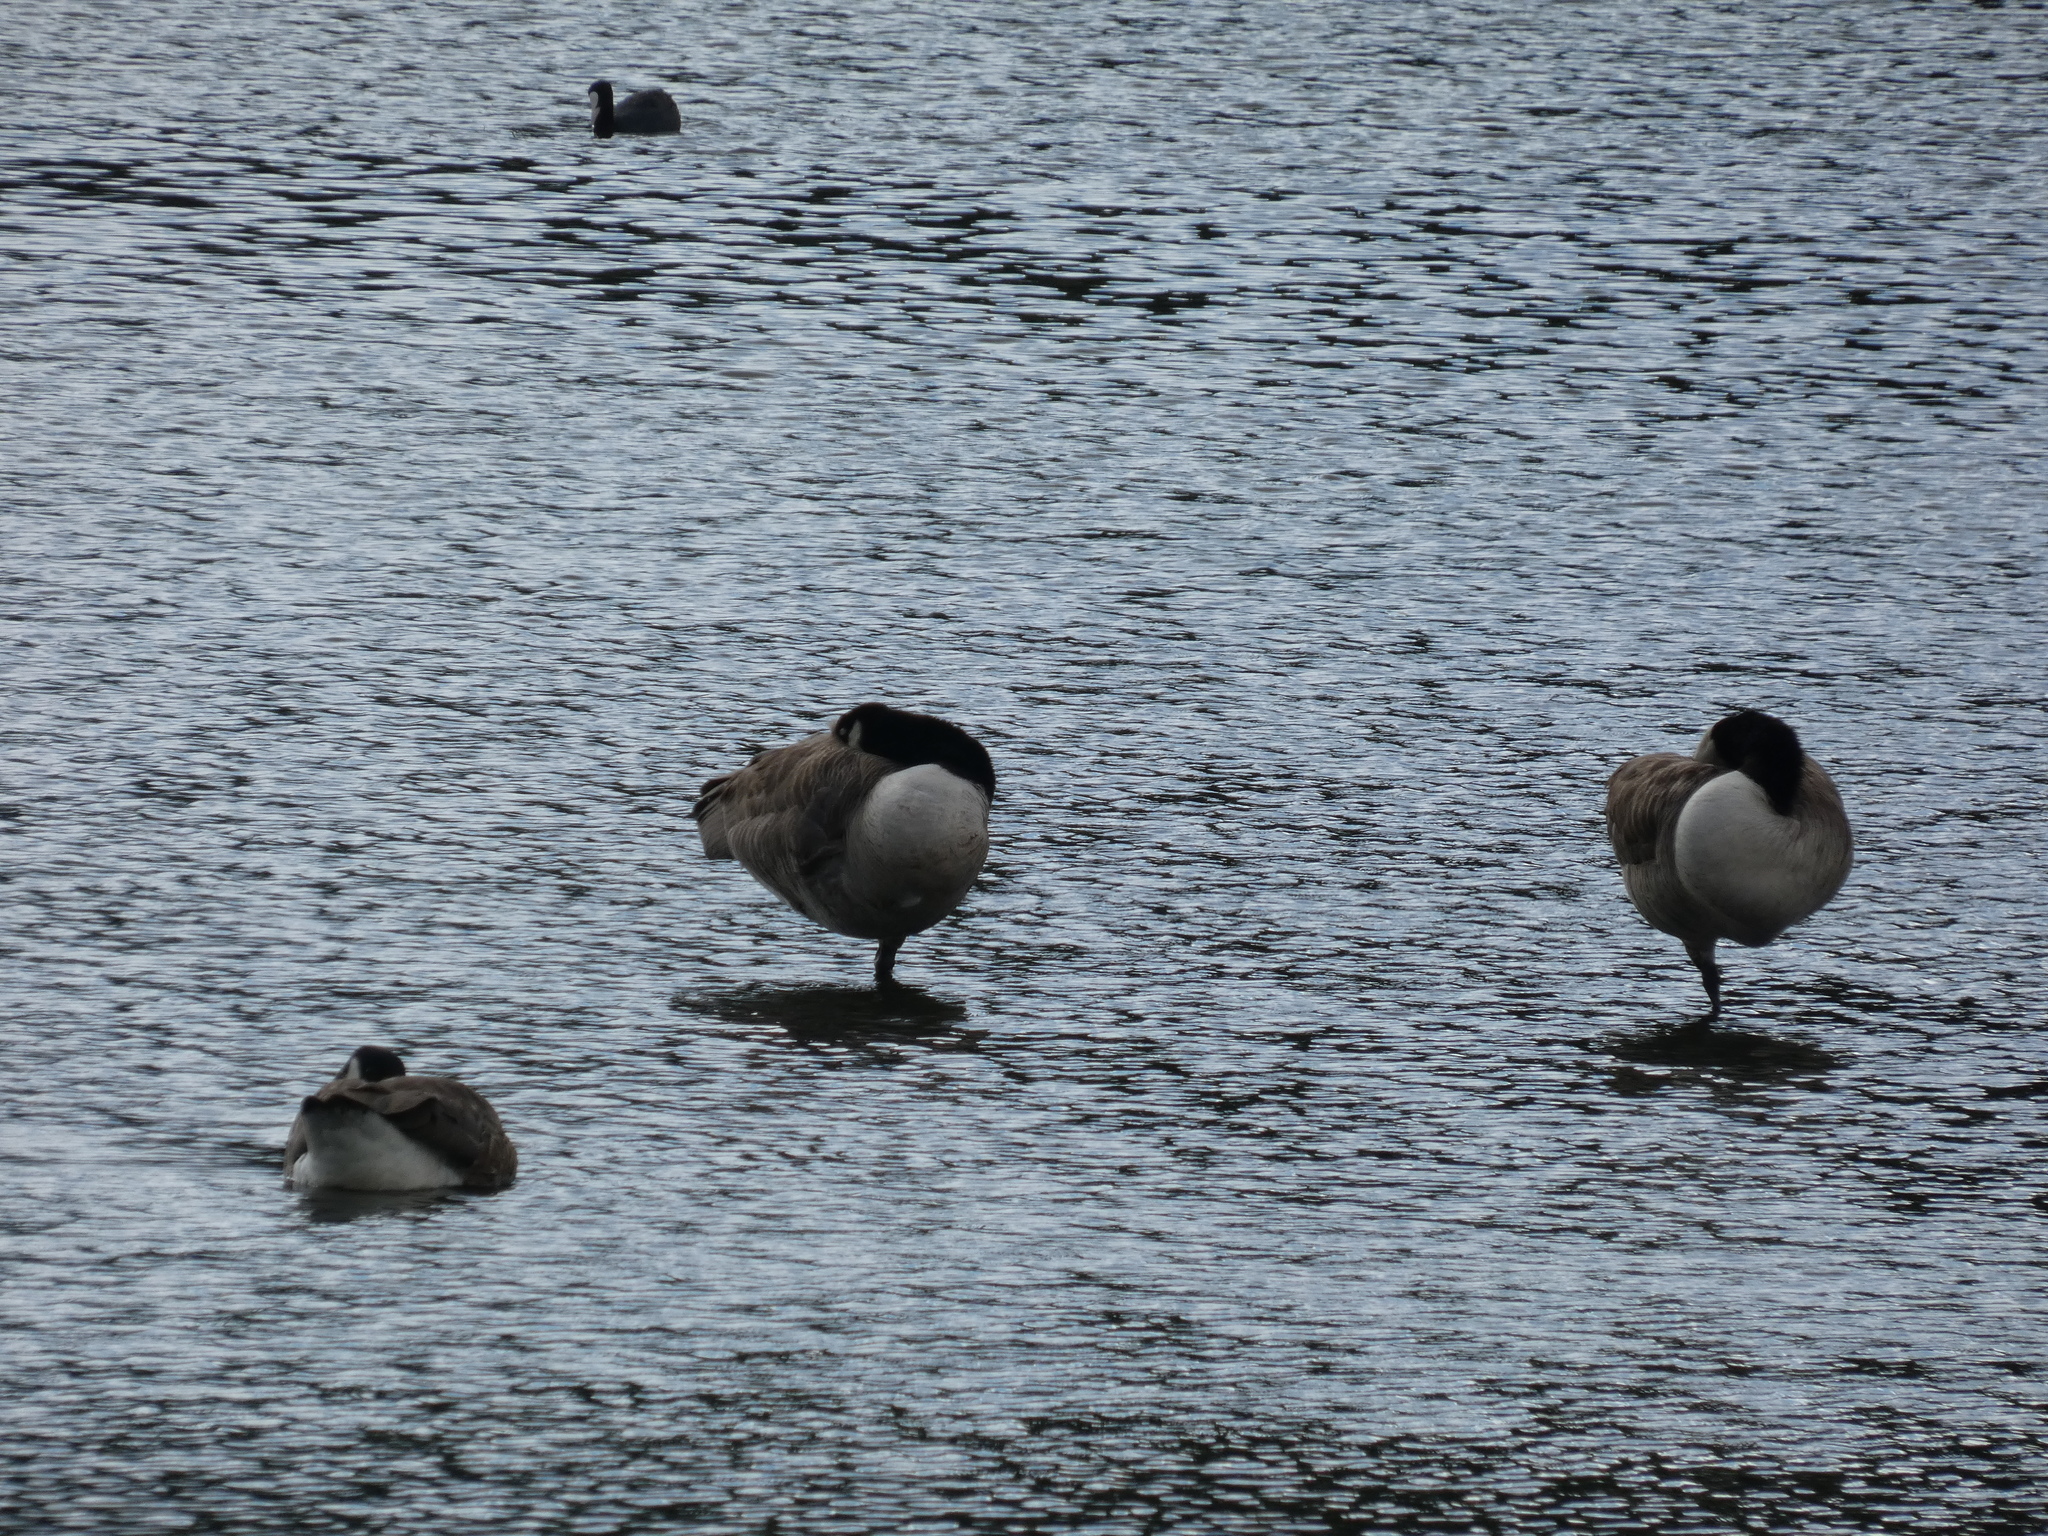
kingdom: Animalia
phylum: Chordata
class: Aves
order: Anseriformes
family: Anatidae
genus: Branta
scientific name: Branta canadensis
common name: Canada goose
